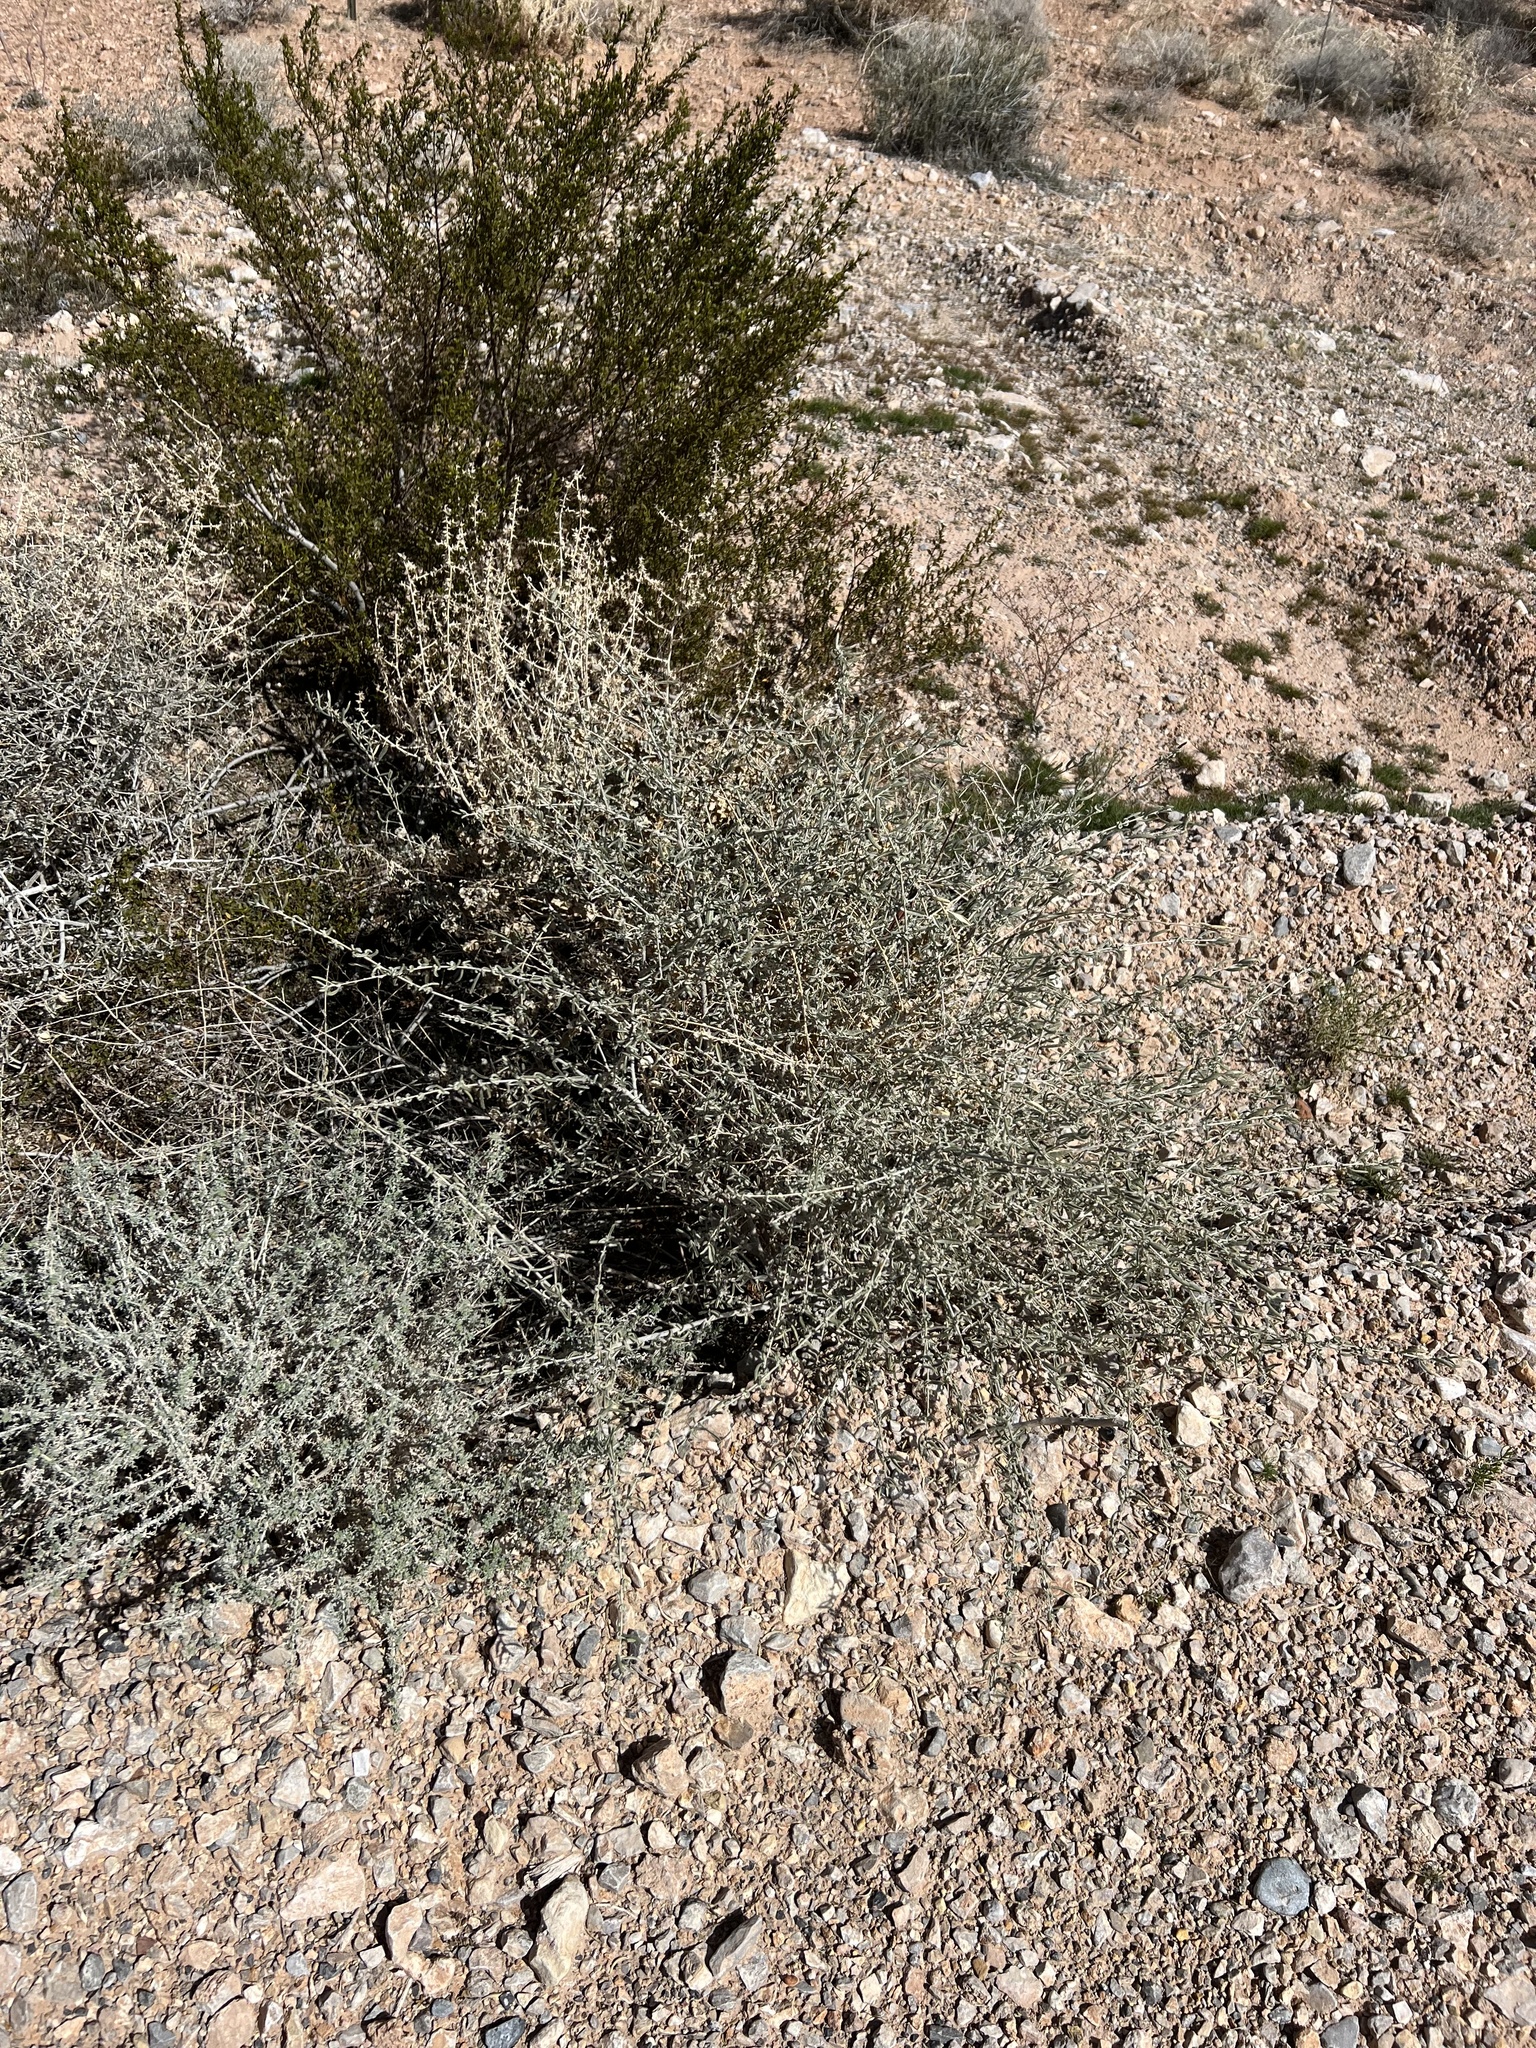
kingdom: Plantae
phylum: Tracheophyta
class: Magnoliopsida
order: Caryophyllales
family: Amaranthaceae
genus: Atriplex
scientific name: Atriplex canescens
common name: Four-wing saltbush
